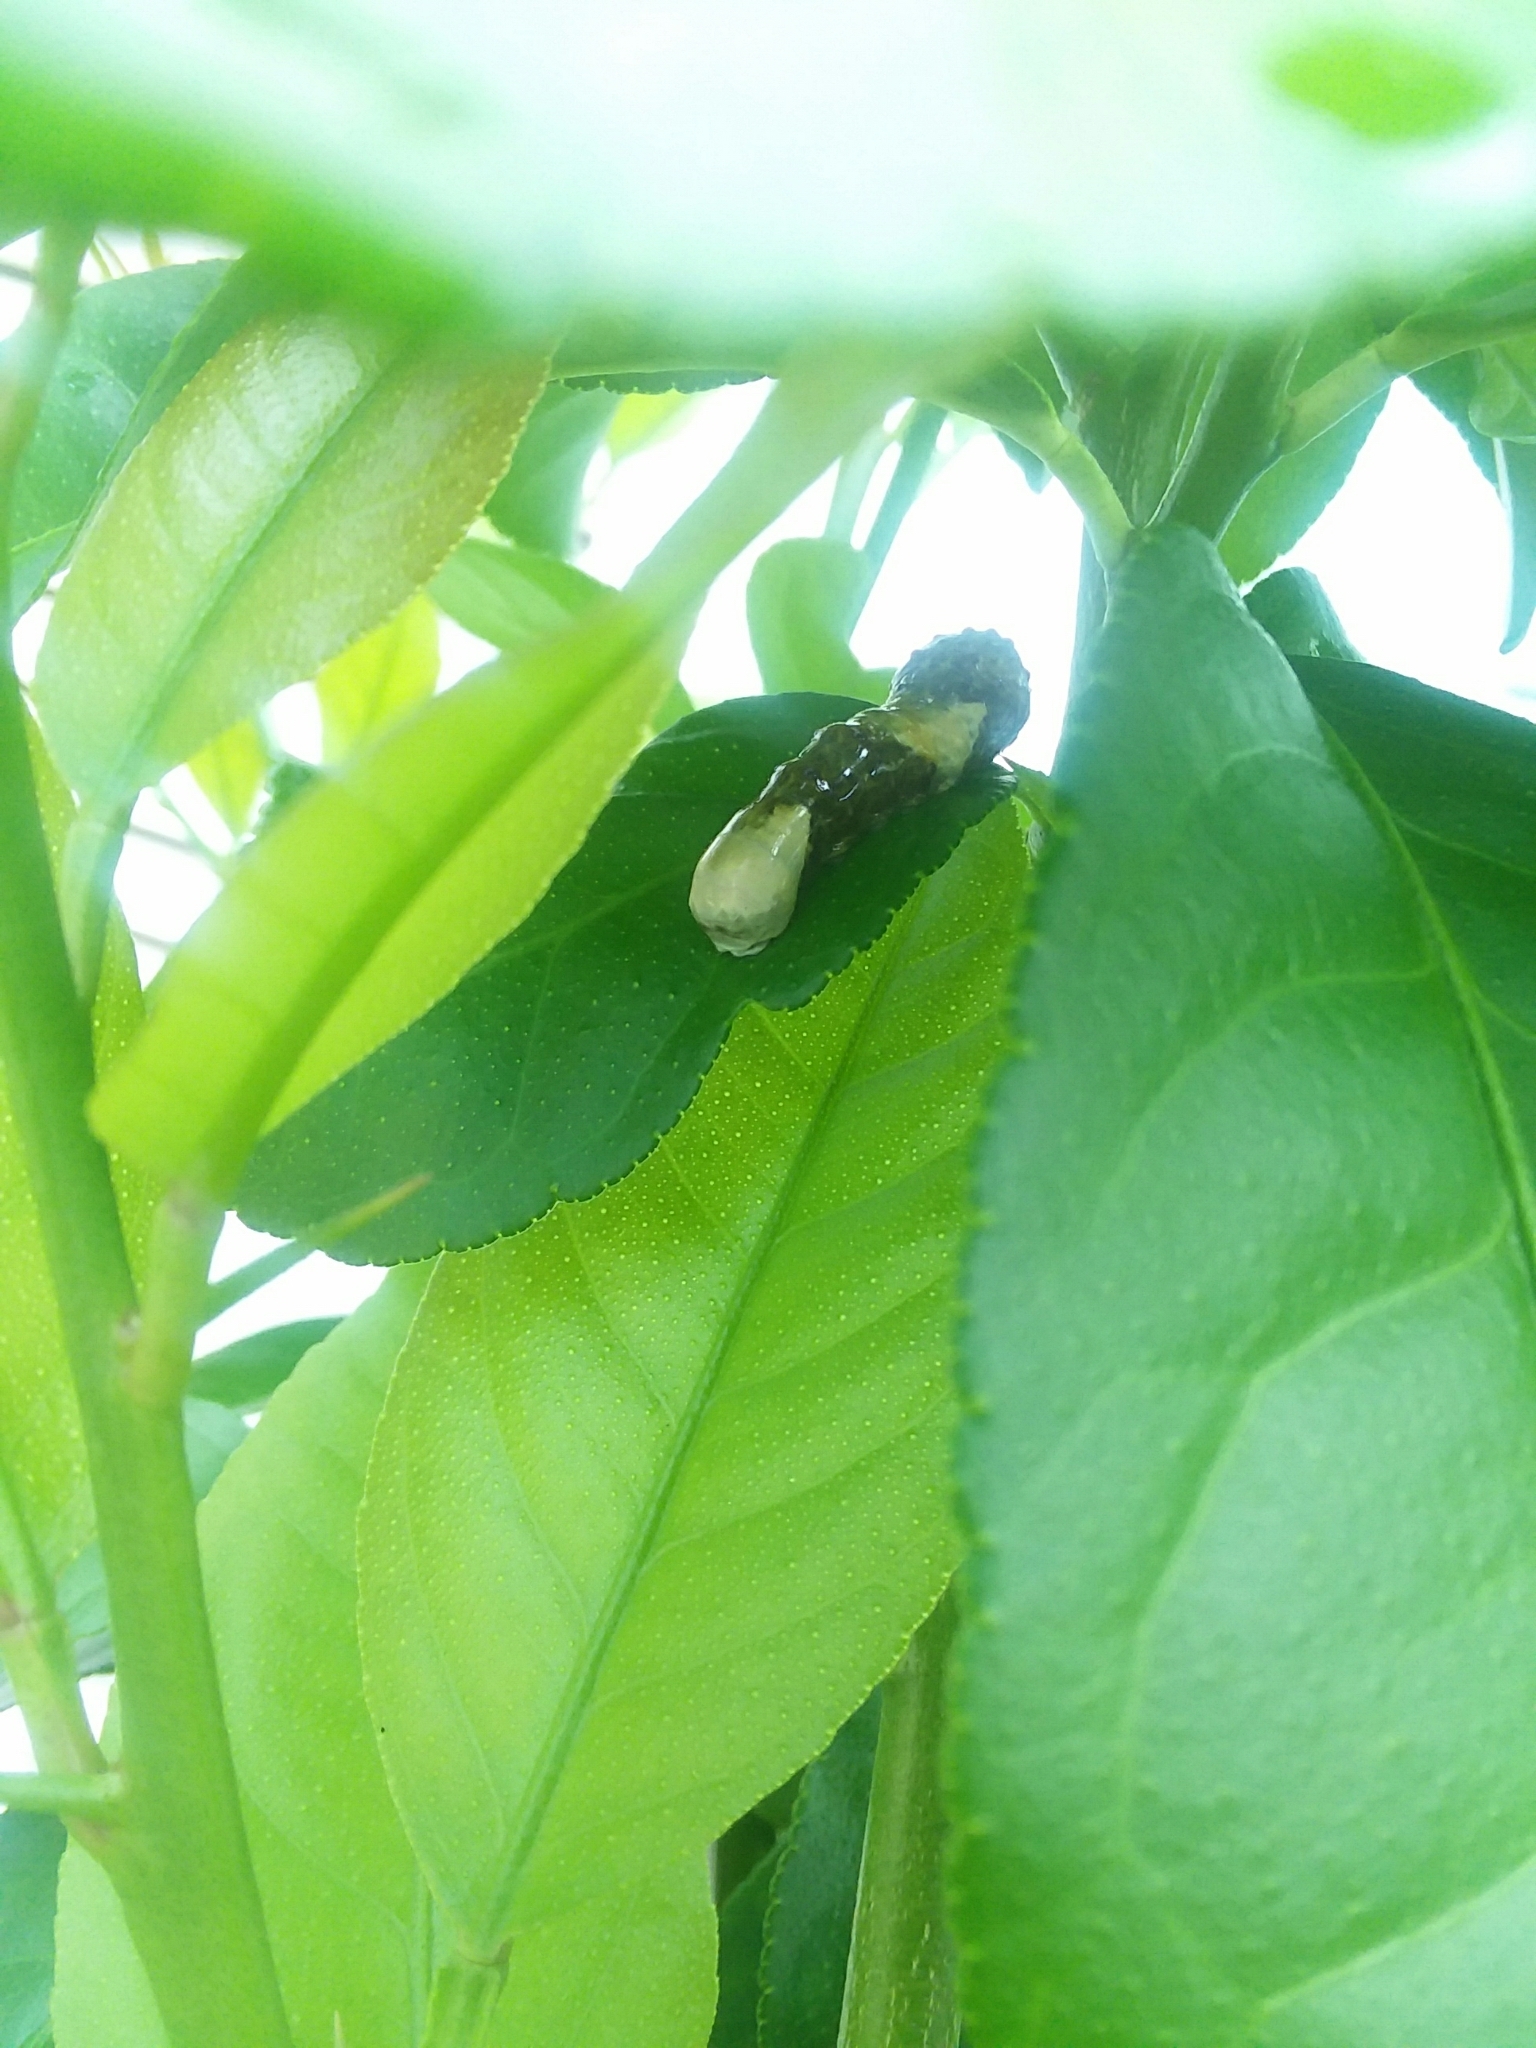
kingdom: Animalia
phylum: Arthropoda
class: Insecta
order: Lepidoptera
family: Papilionidae
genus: Papilio
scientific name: Papilio cresphontes
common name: Giant swallowtail
